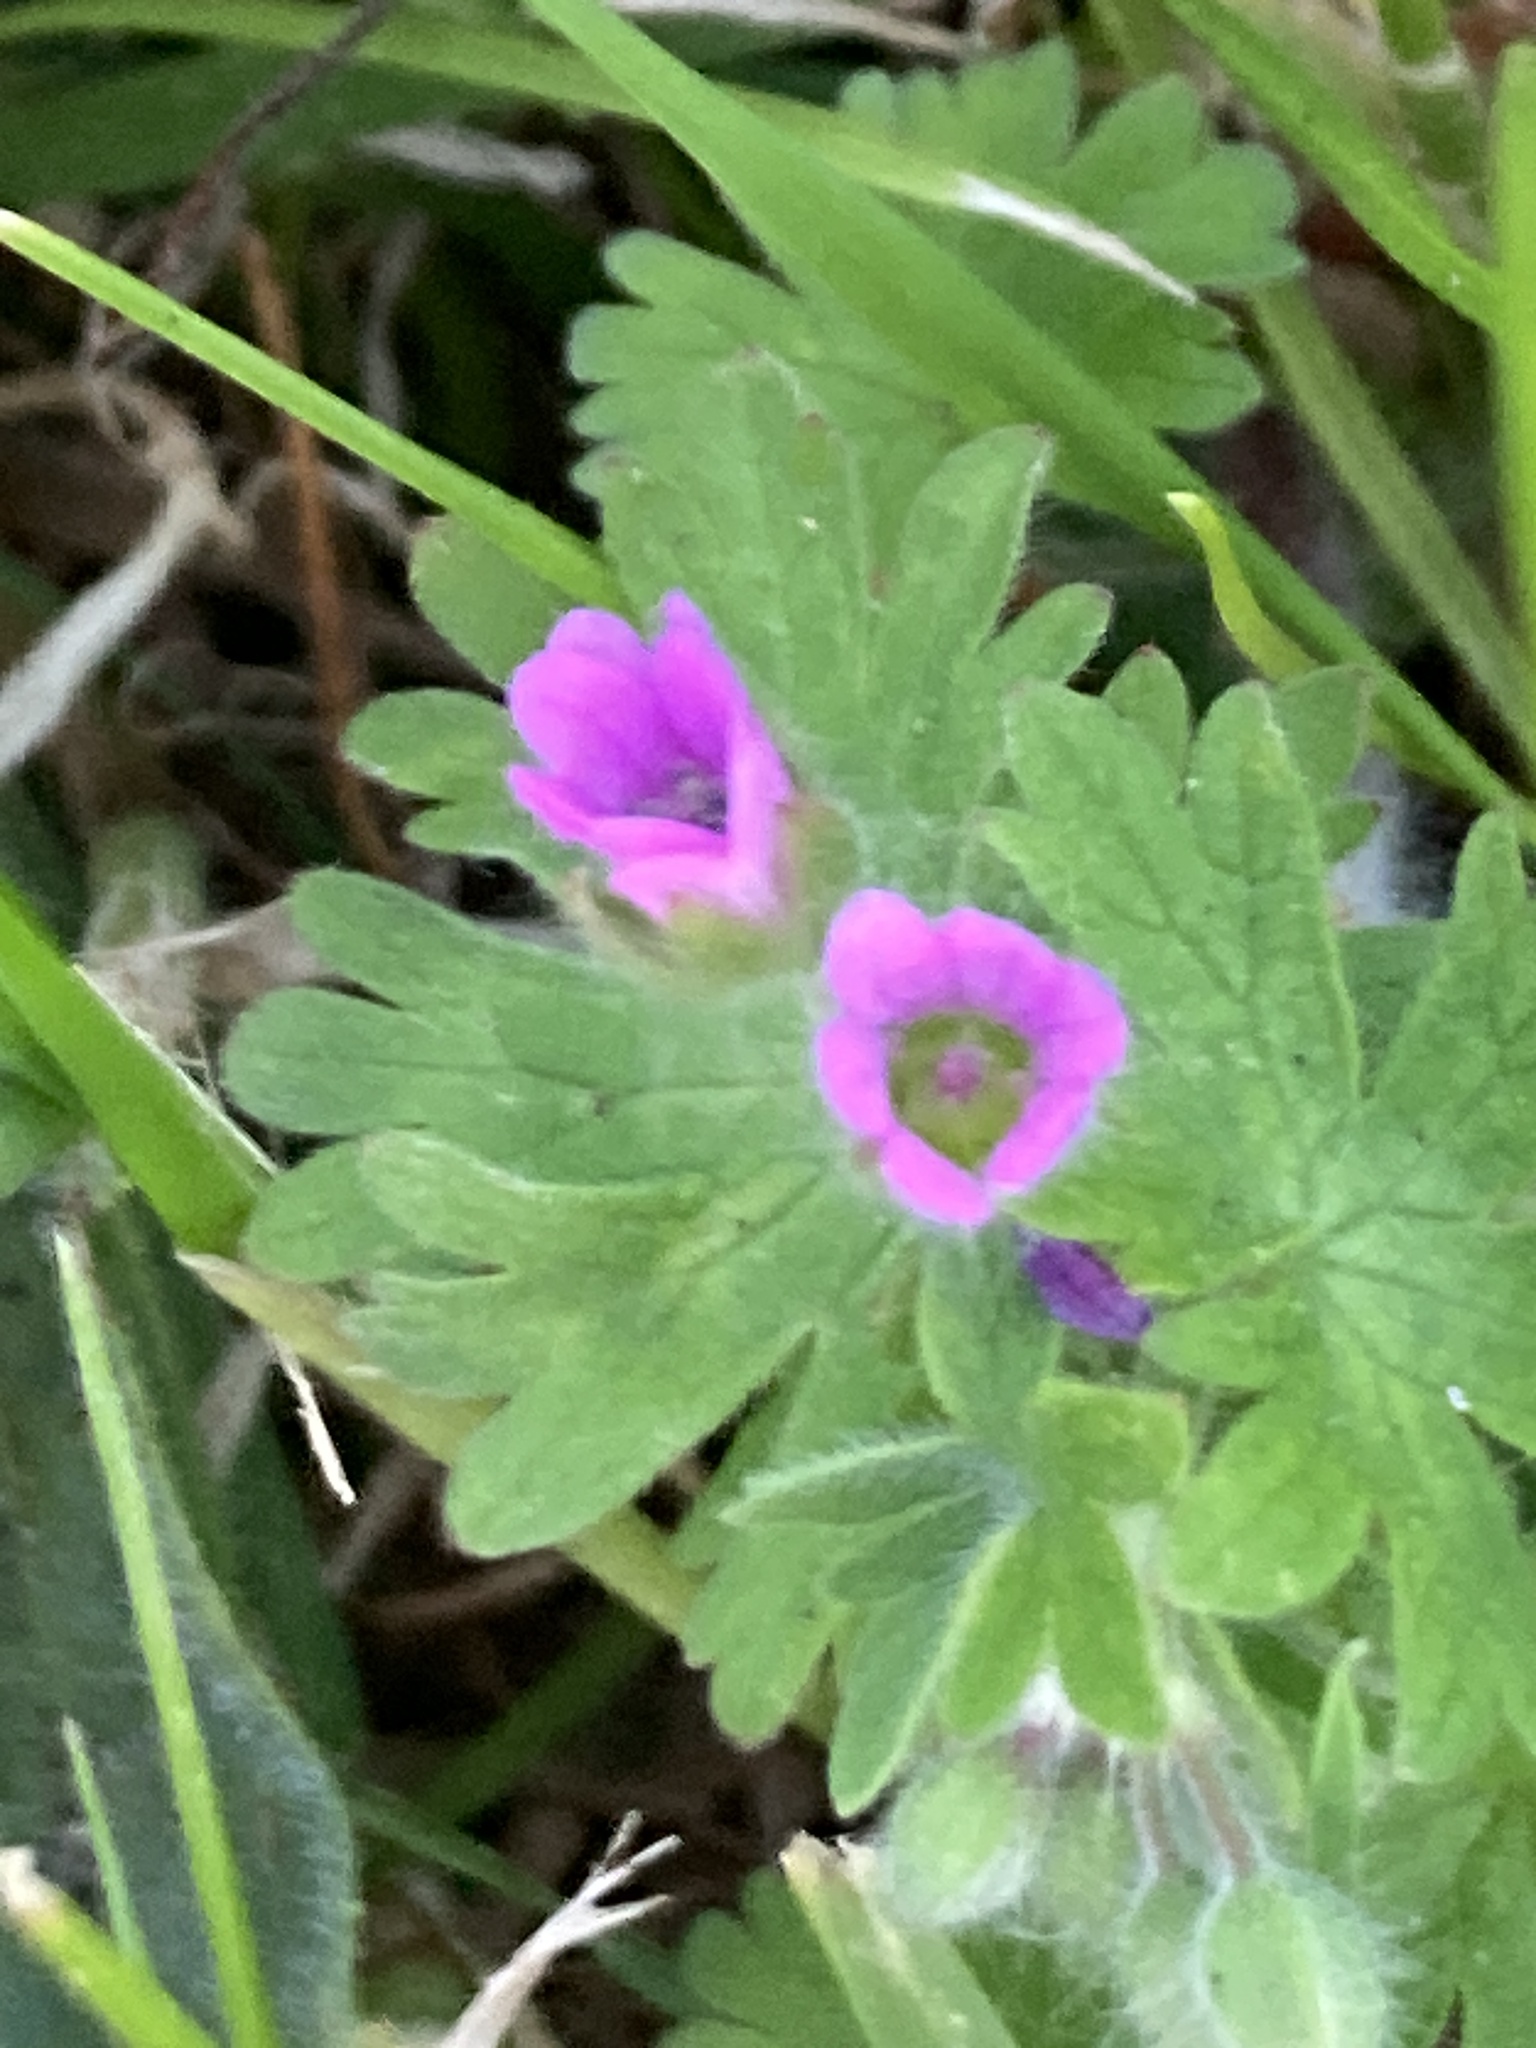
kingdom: Plantae
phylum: Tracheophyta
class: Magnoliopsida
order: Geraniales
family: Geraniaceae
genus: Geranium
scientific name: Geranium molle
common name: Dove's-foot crane's-bill
